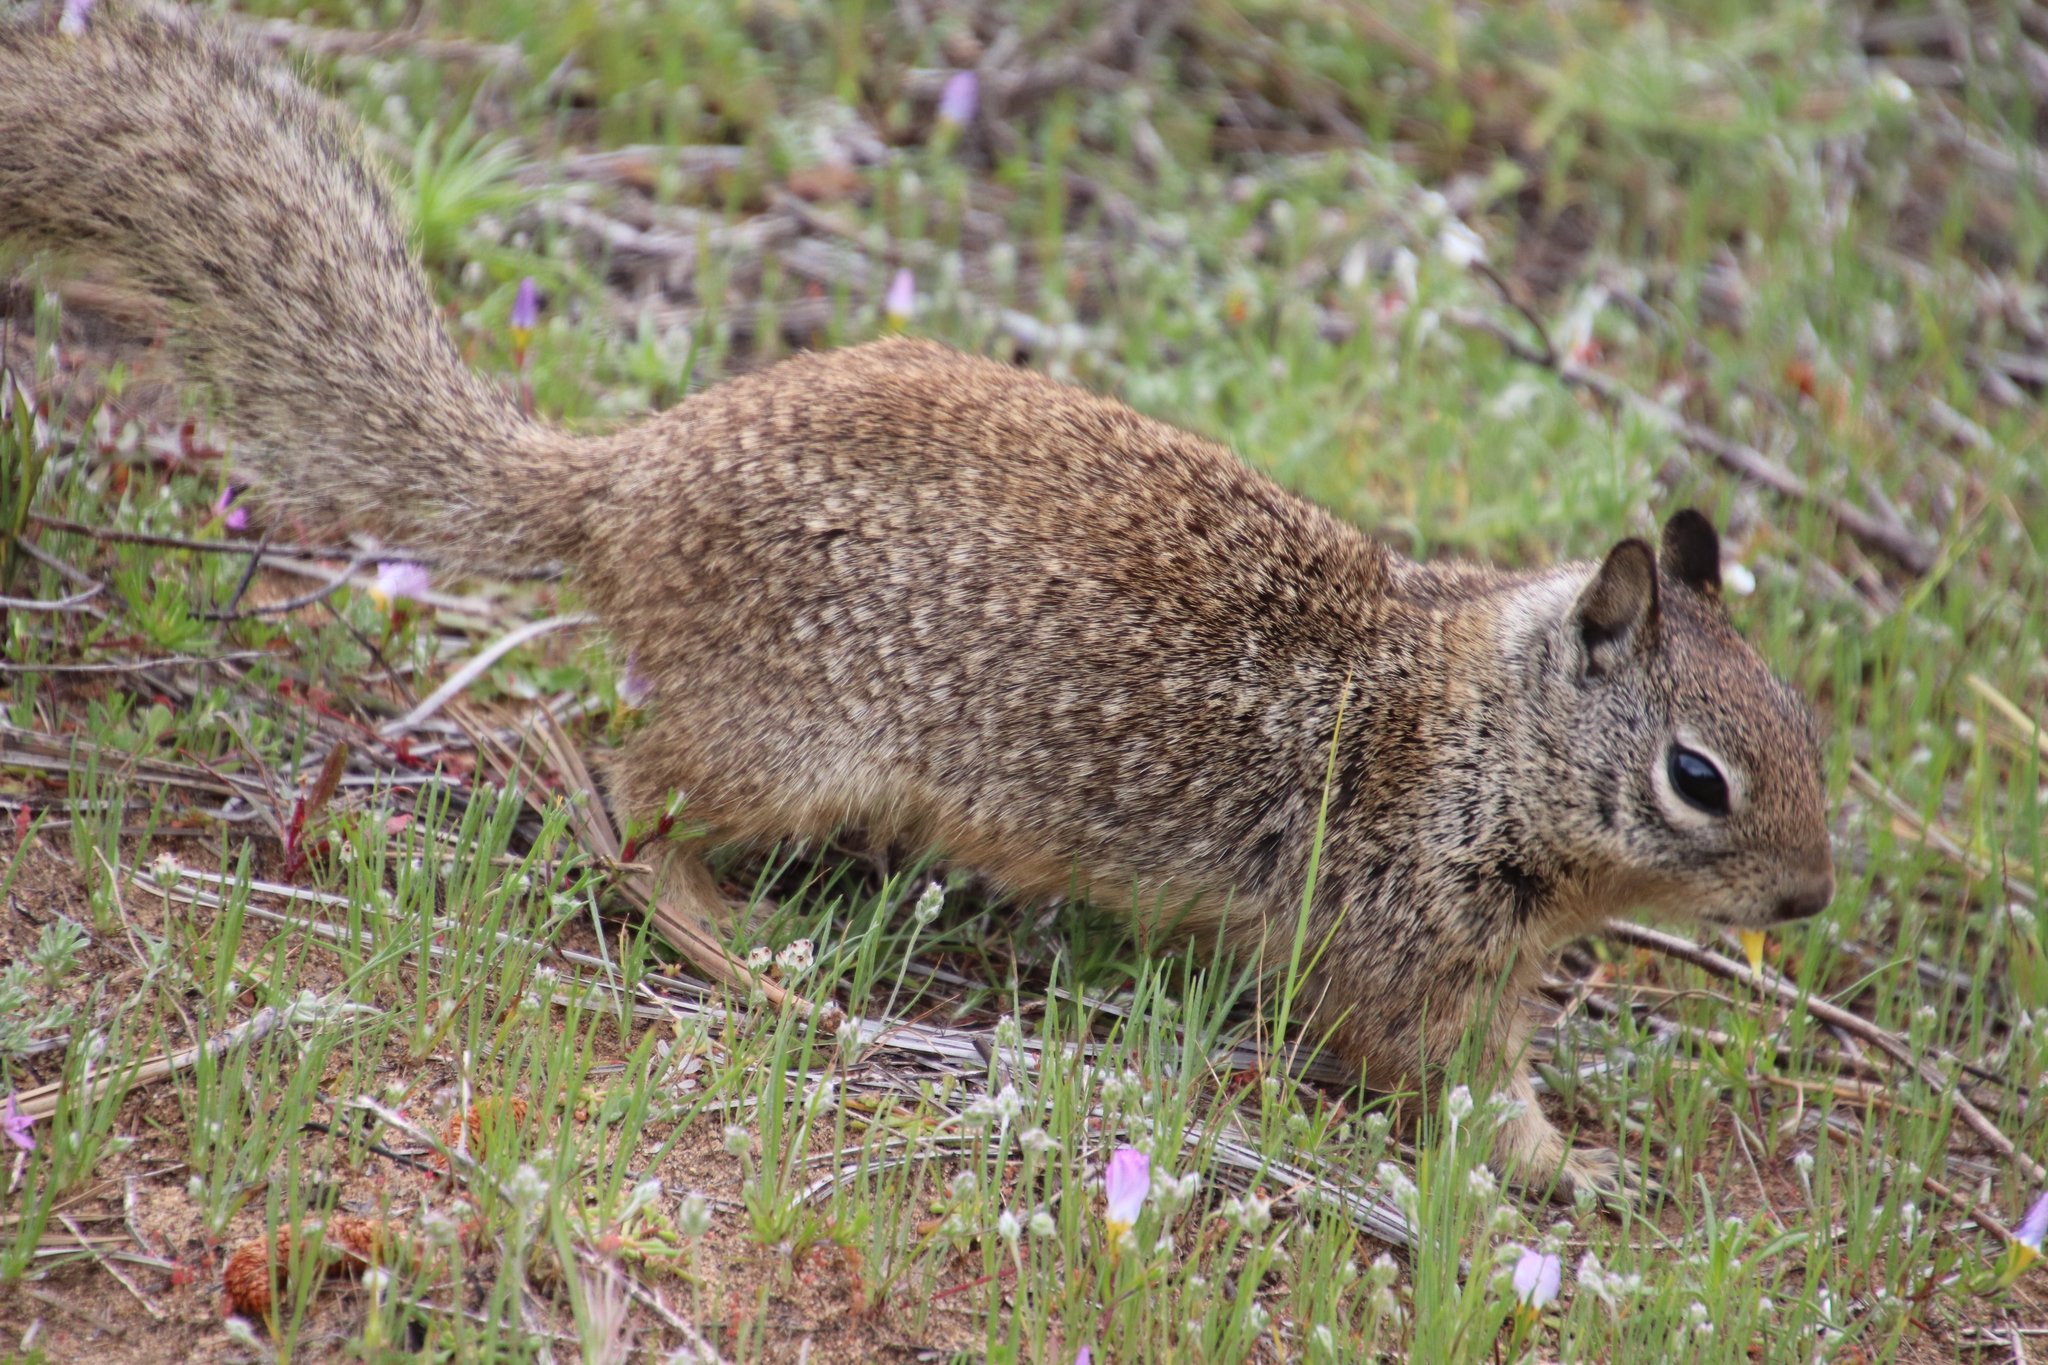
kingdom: Animalia
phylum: Chordata
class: Mammalia
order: Rodentia
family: Sciuridae
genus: Otospermophilus
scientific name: Otospermophilus beecheyi
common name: California ground squirrel
